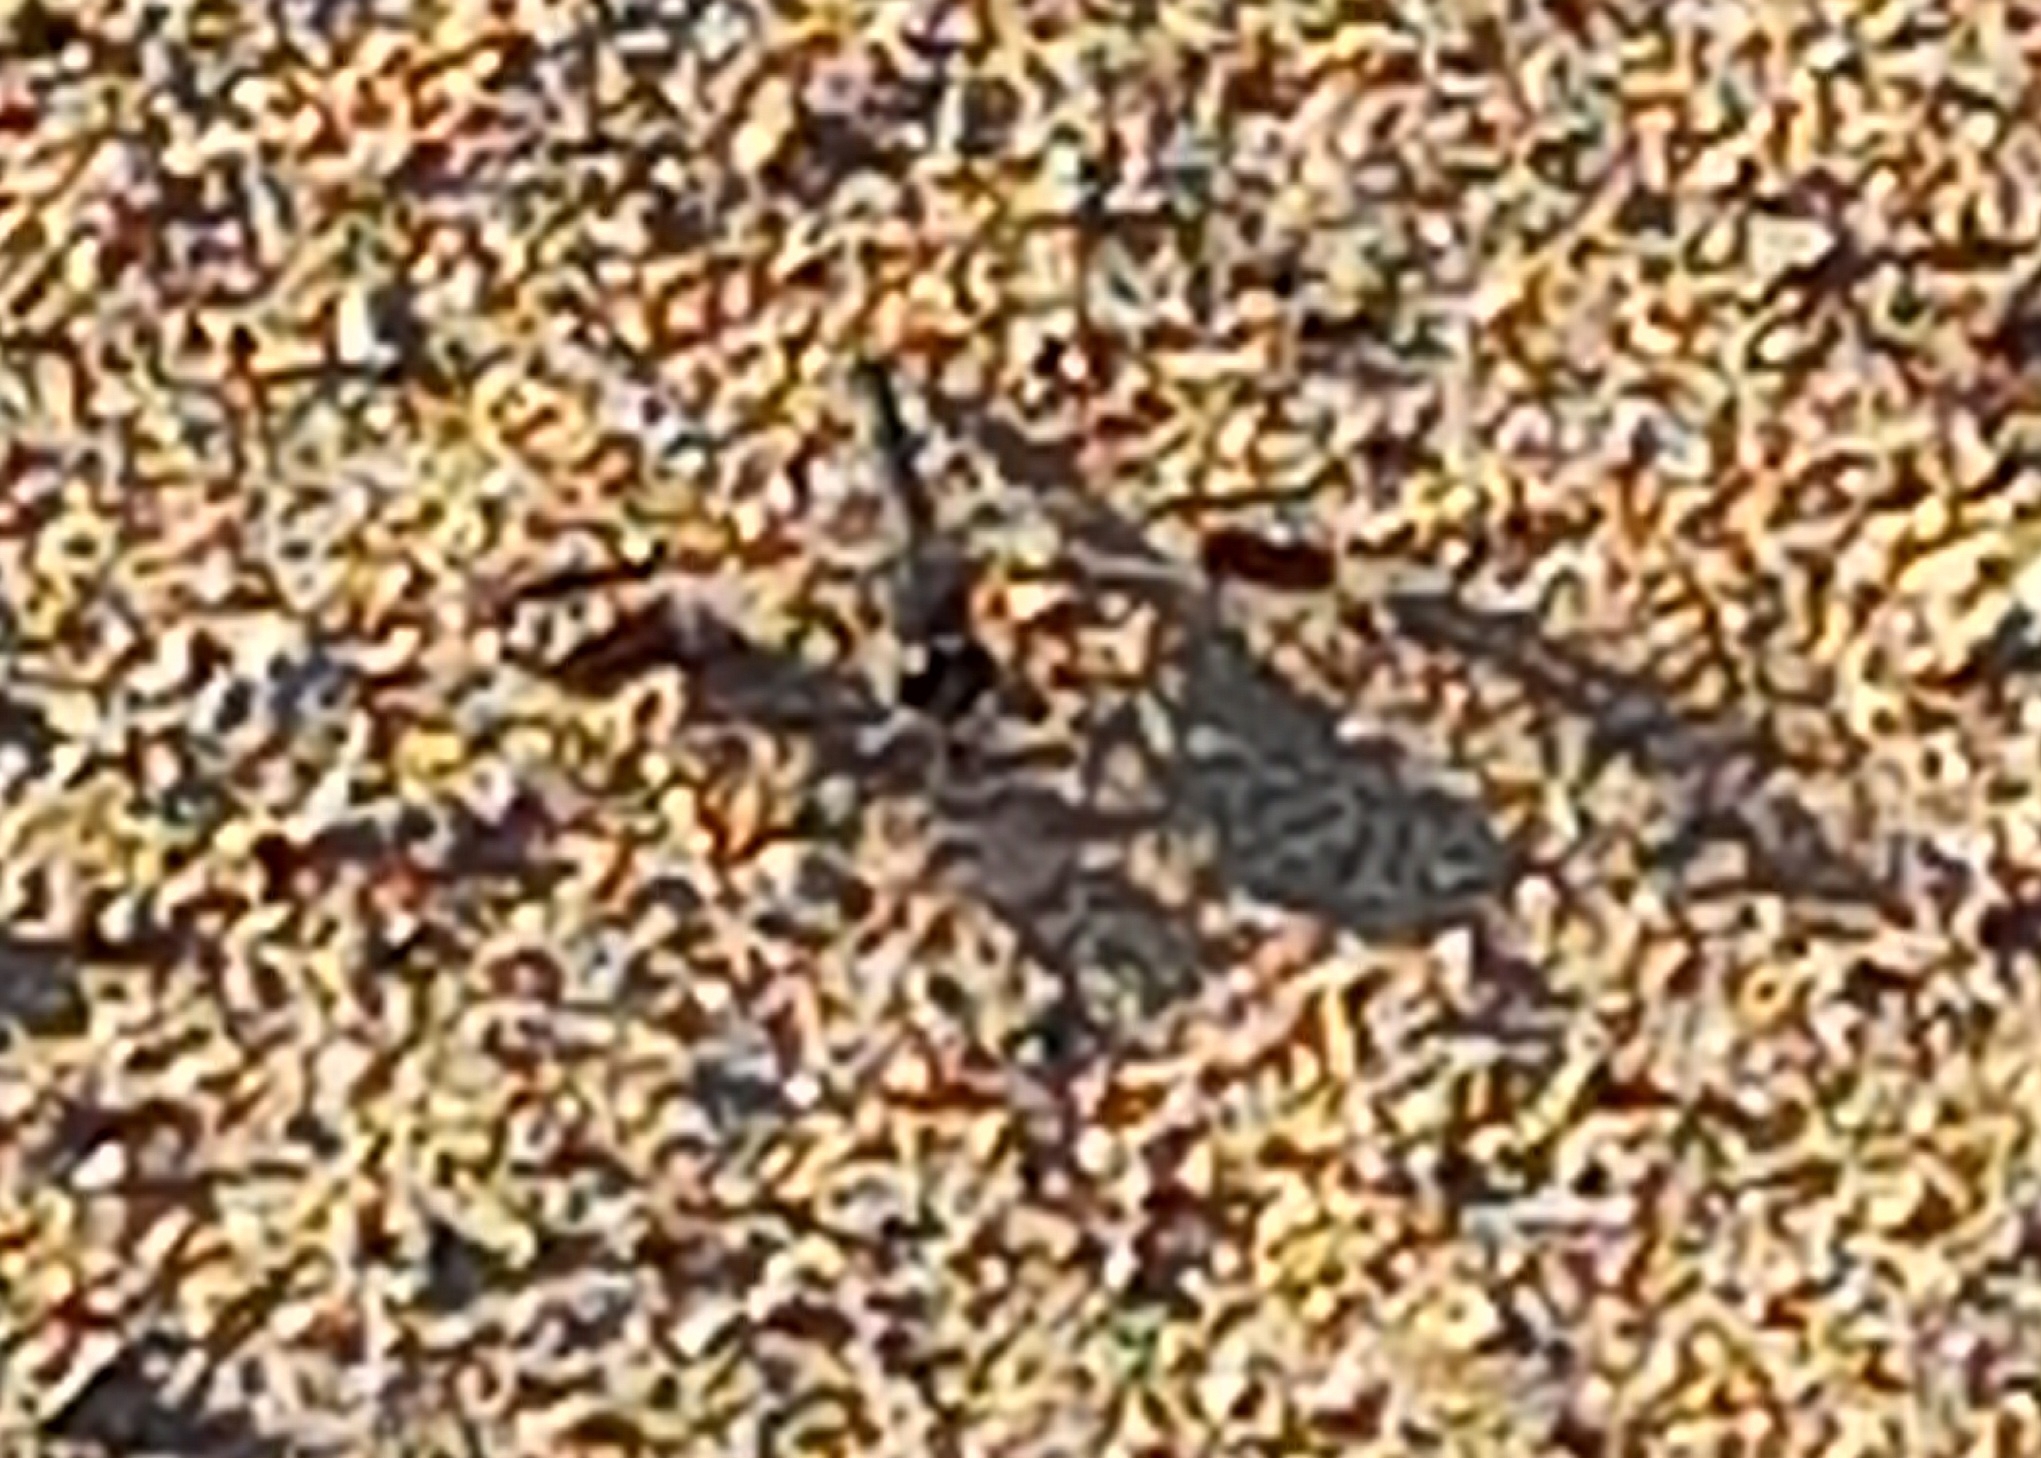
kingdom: Animalia
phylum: Arthropoda
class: Insecta
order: Odonata
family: Libellulidae
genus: Brachythemis
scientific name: Brachythemis leucosticta
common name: Banded groundling
